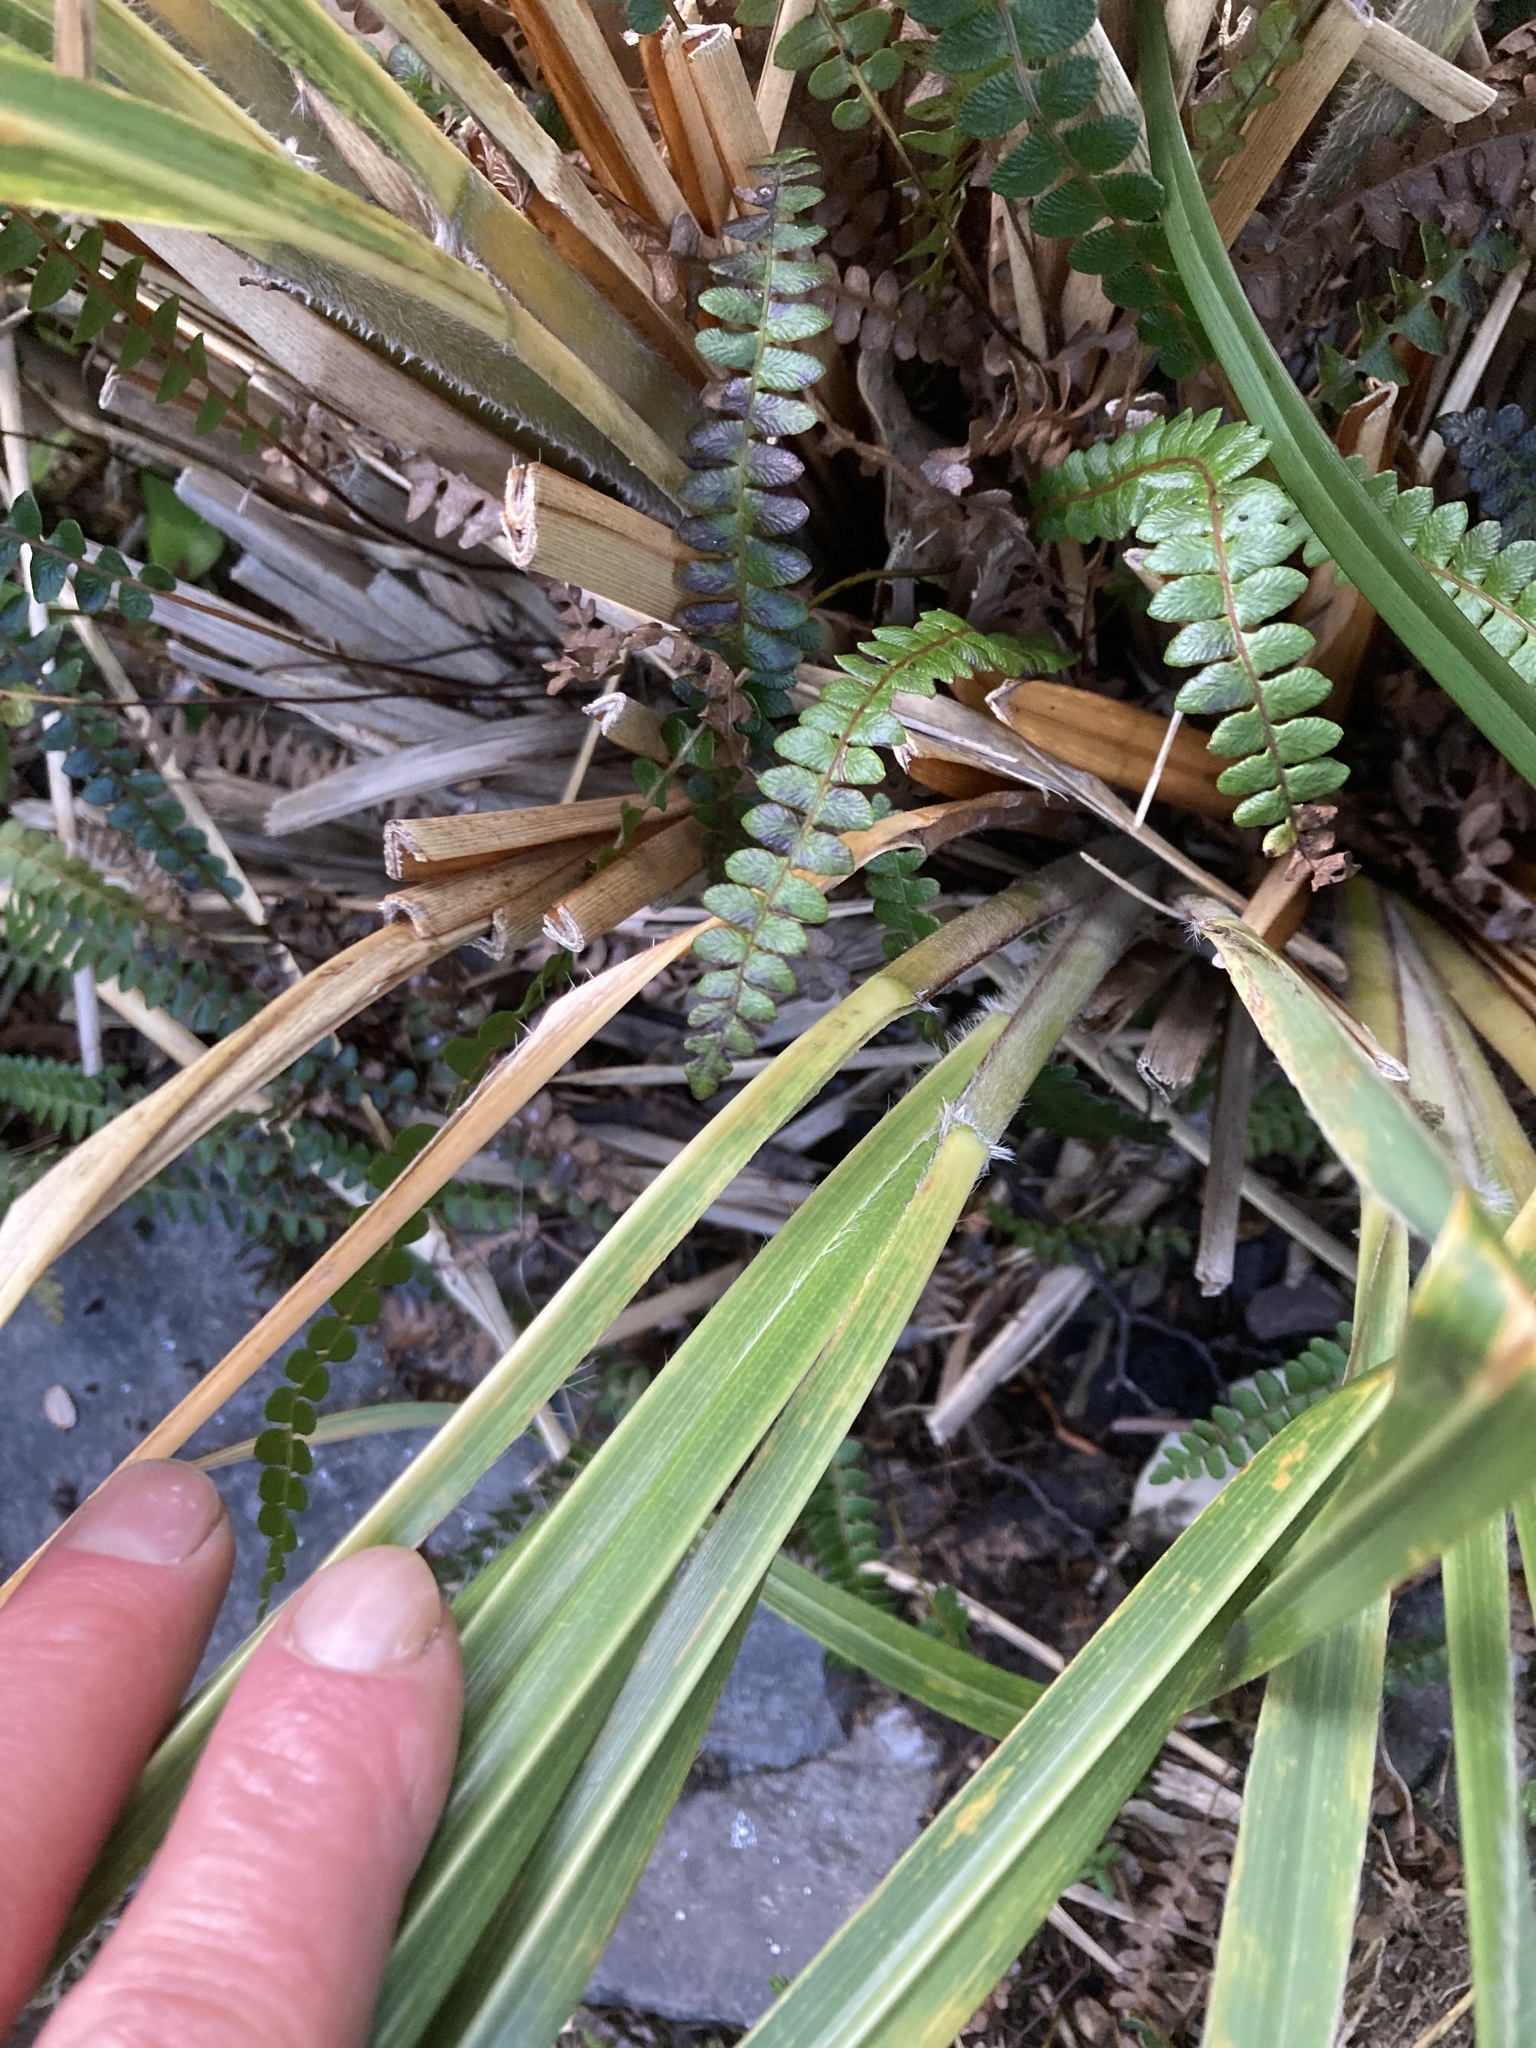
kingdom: Plantae
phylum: Tracheophyta
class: Liliopsida
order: Poales
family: Poaceae
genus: Chionochloa
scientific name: Chionochloa conspicua
